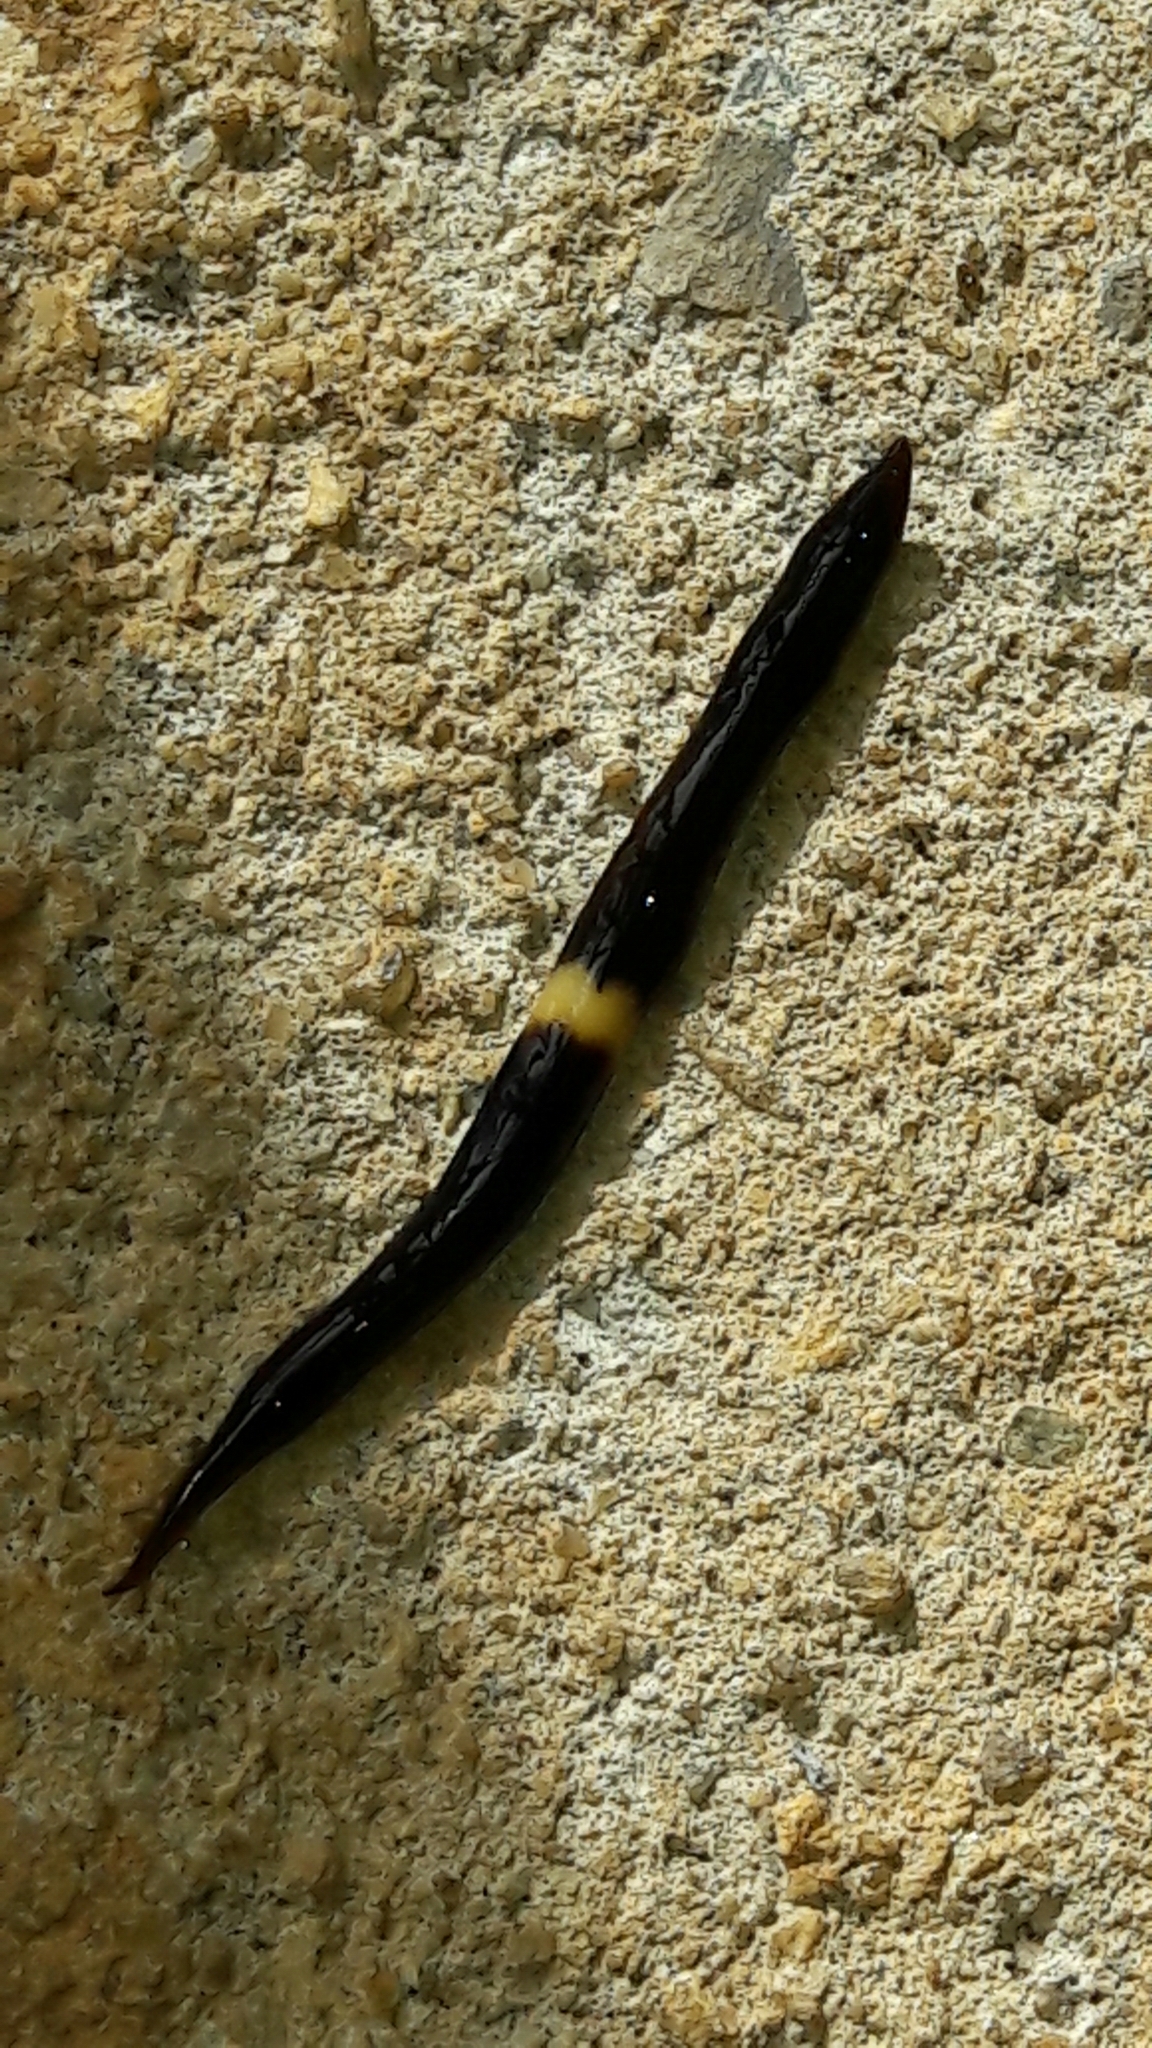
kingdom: Animalia
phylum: Platyhelminthes
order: Tricladida
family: Geoplanidae
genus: Paraba
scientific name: Paraba pankaru
